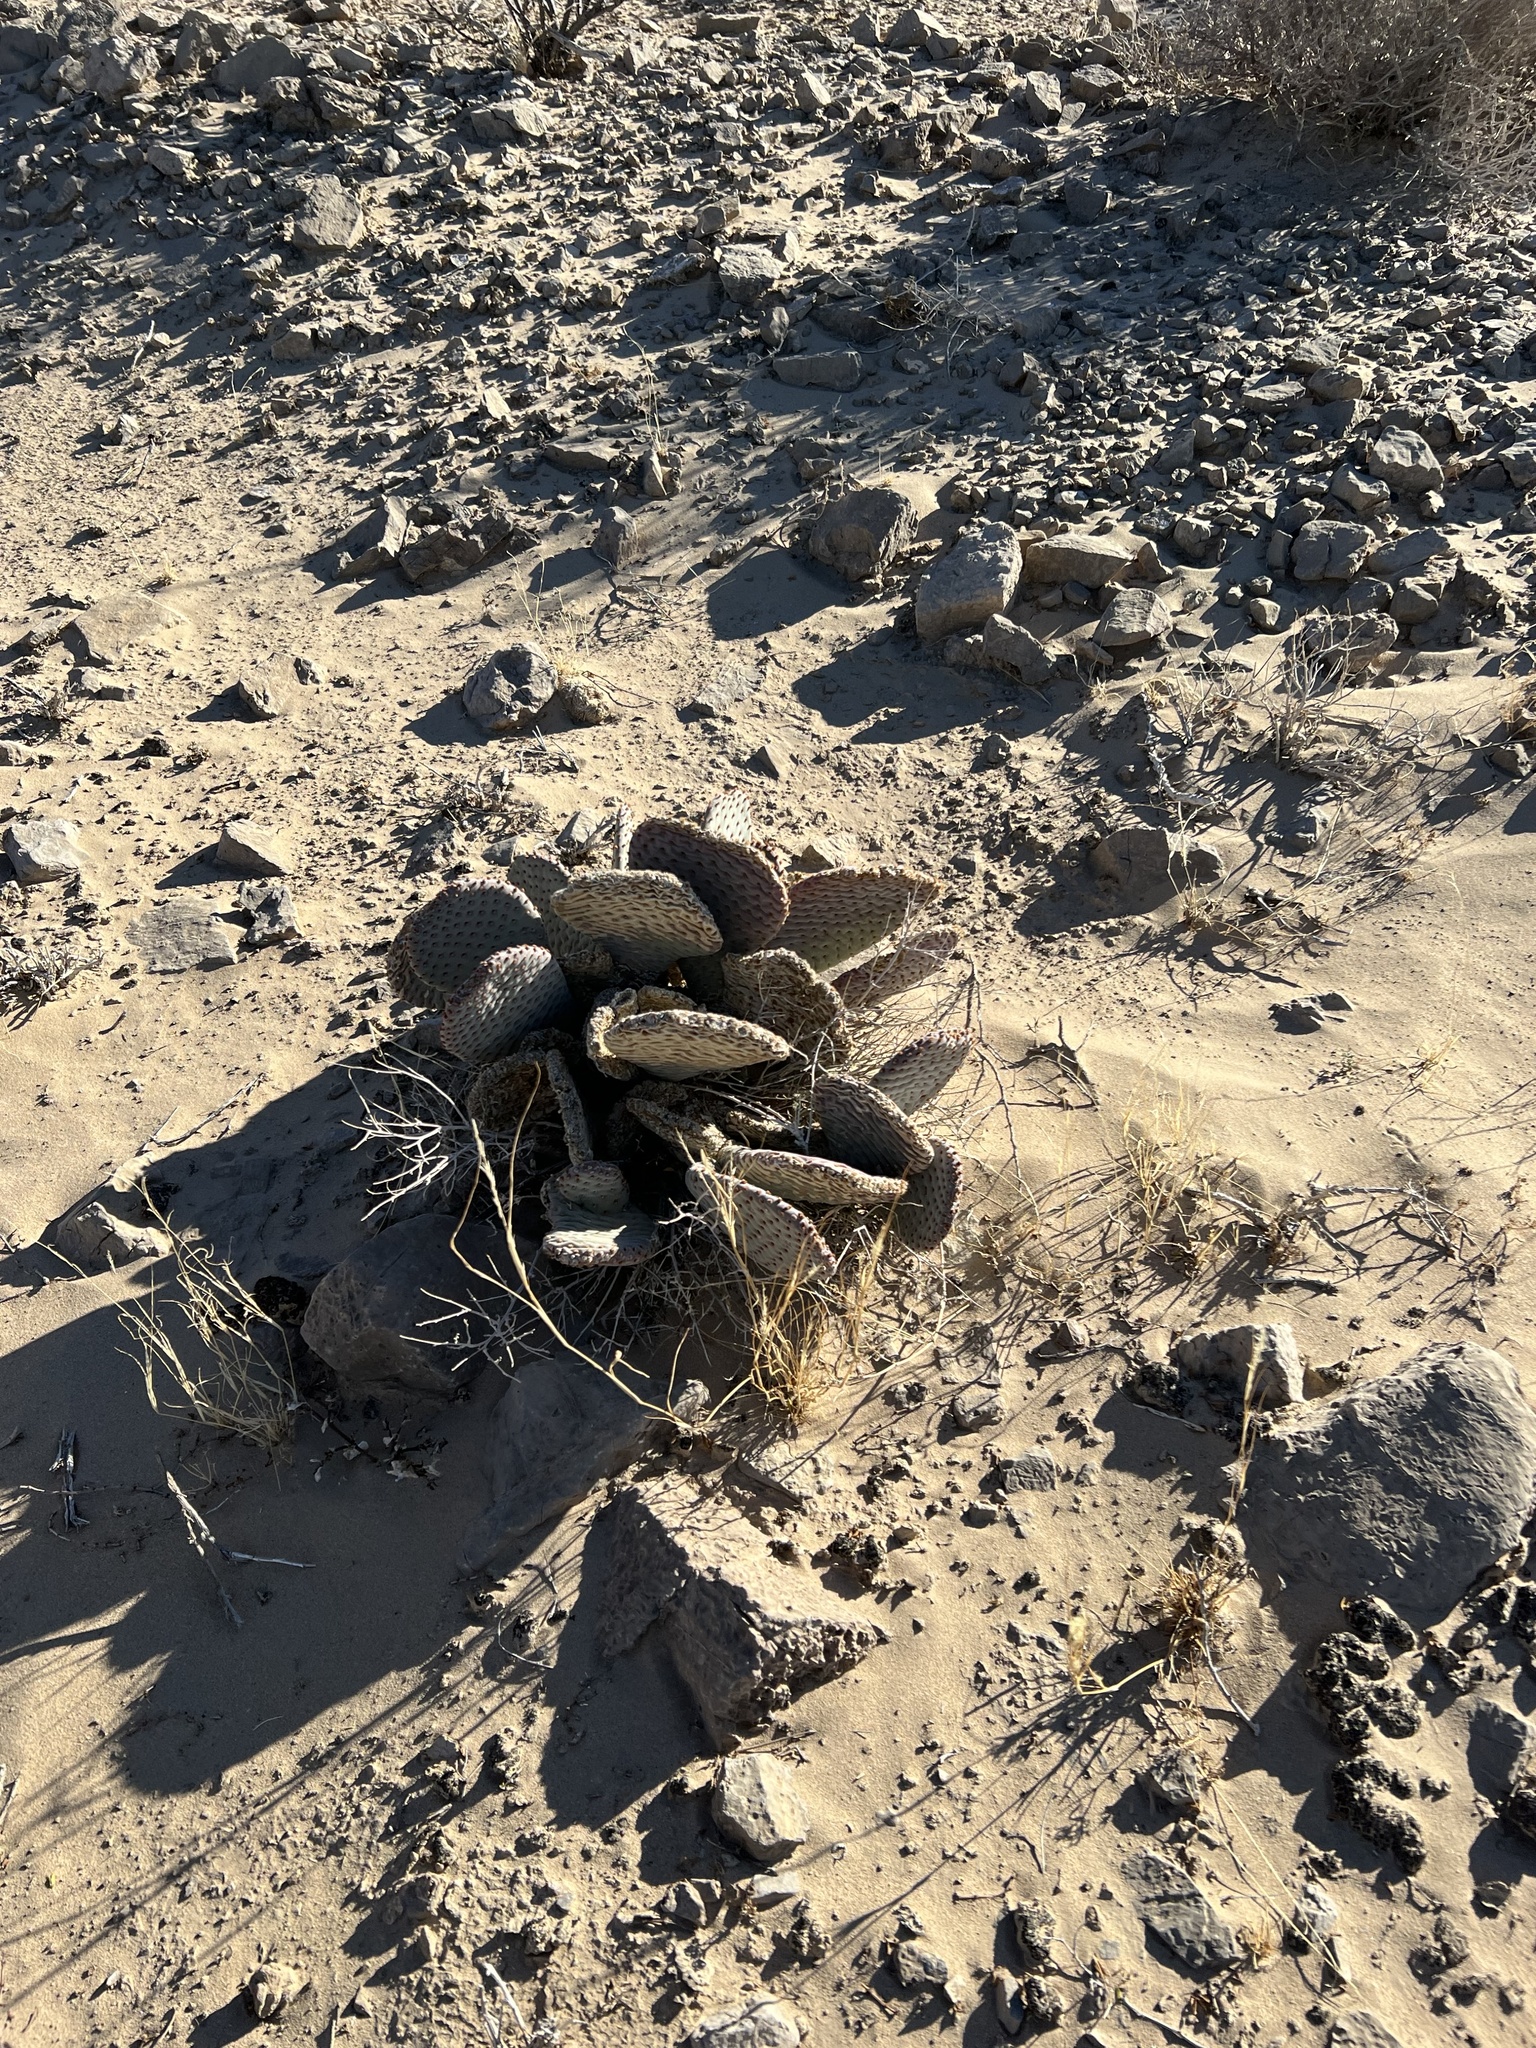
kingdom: Plantae
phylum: Tracheophyta
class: Magnoliopsida
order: Caryophyllales
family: Cactaceae
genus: Opuntia
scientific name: Opuntia basilaris
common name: Beavertail prickly-pear
